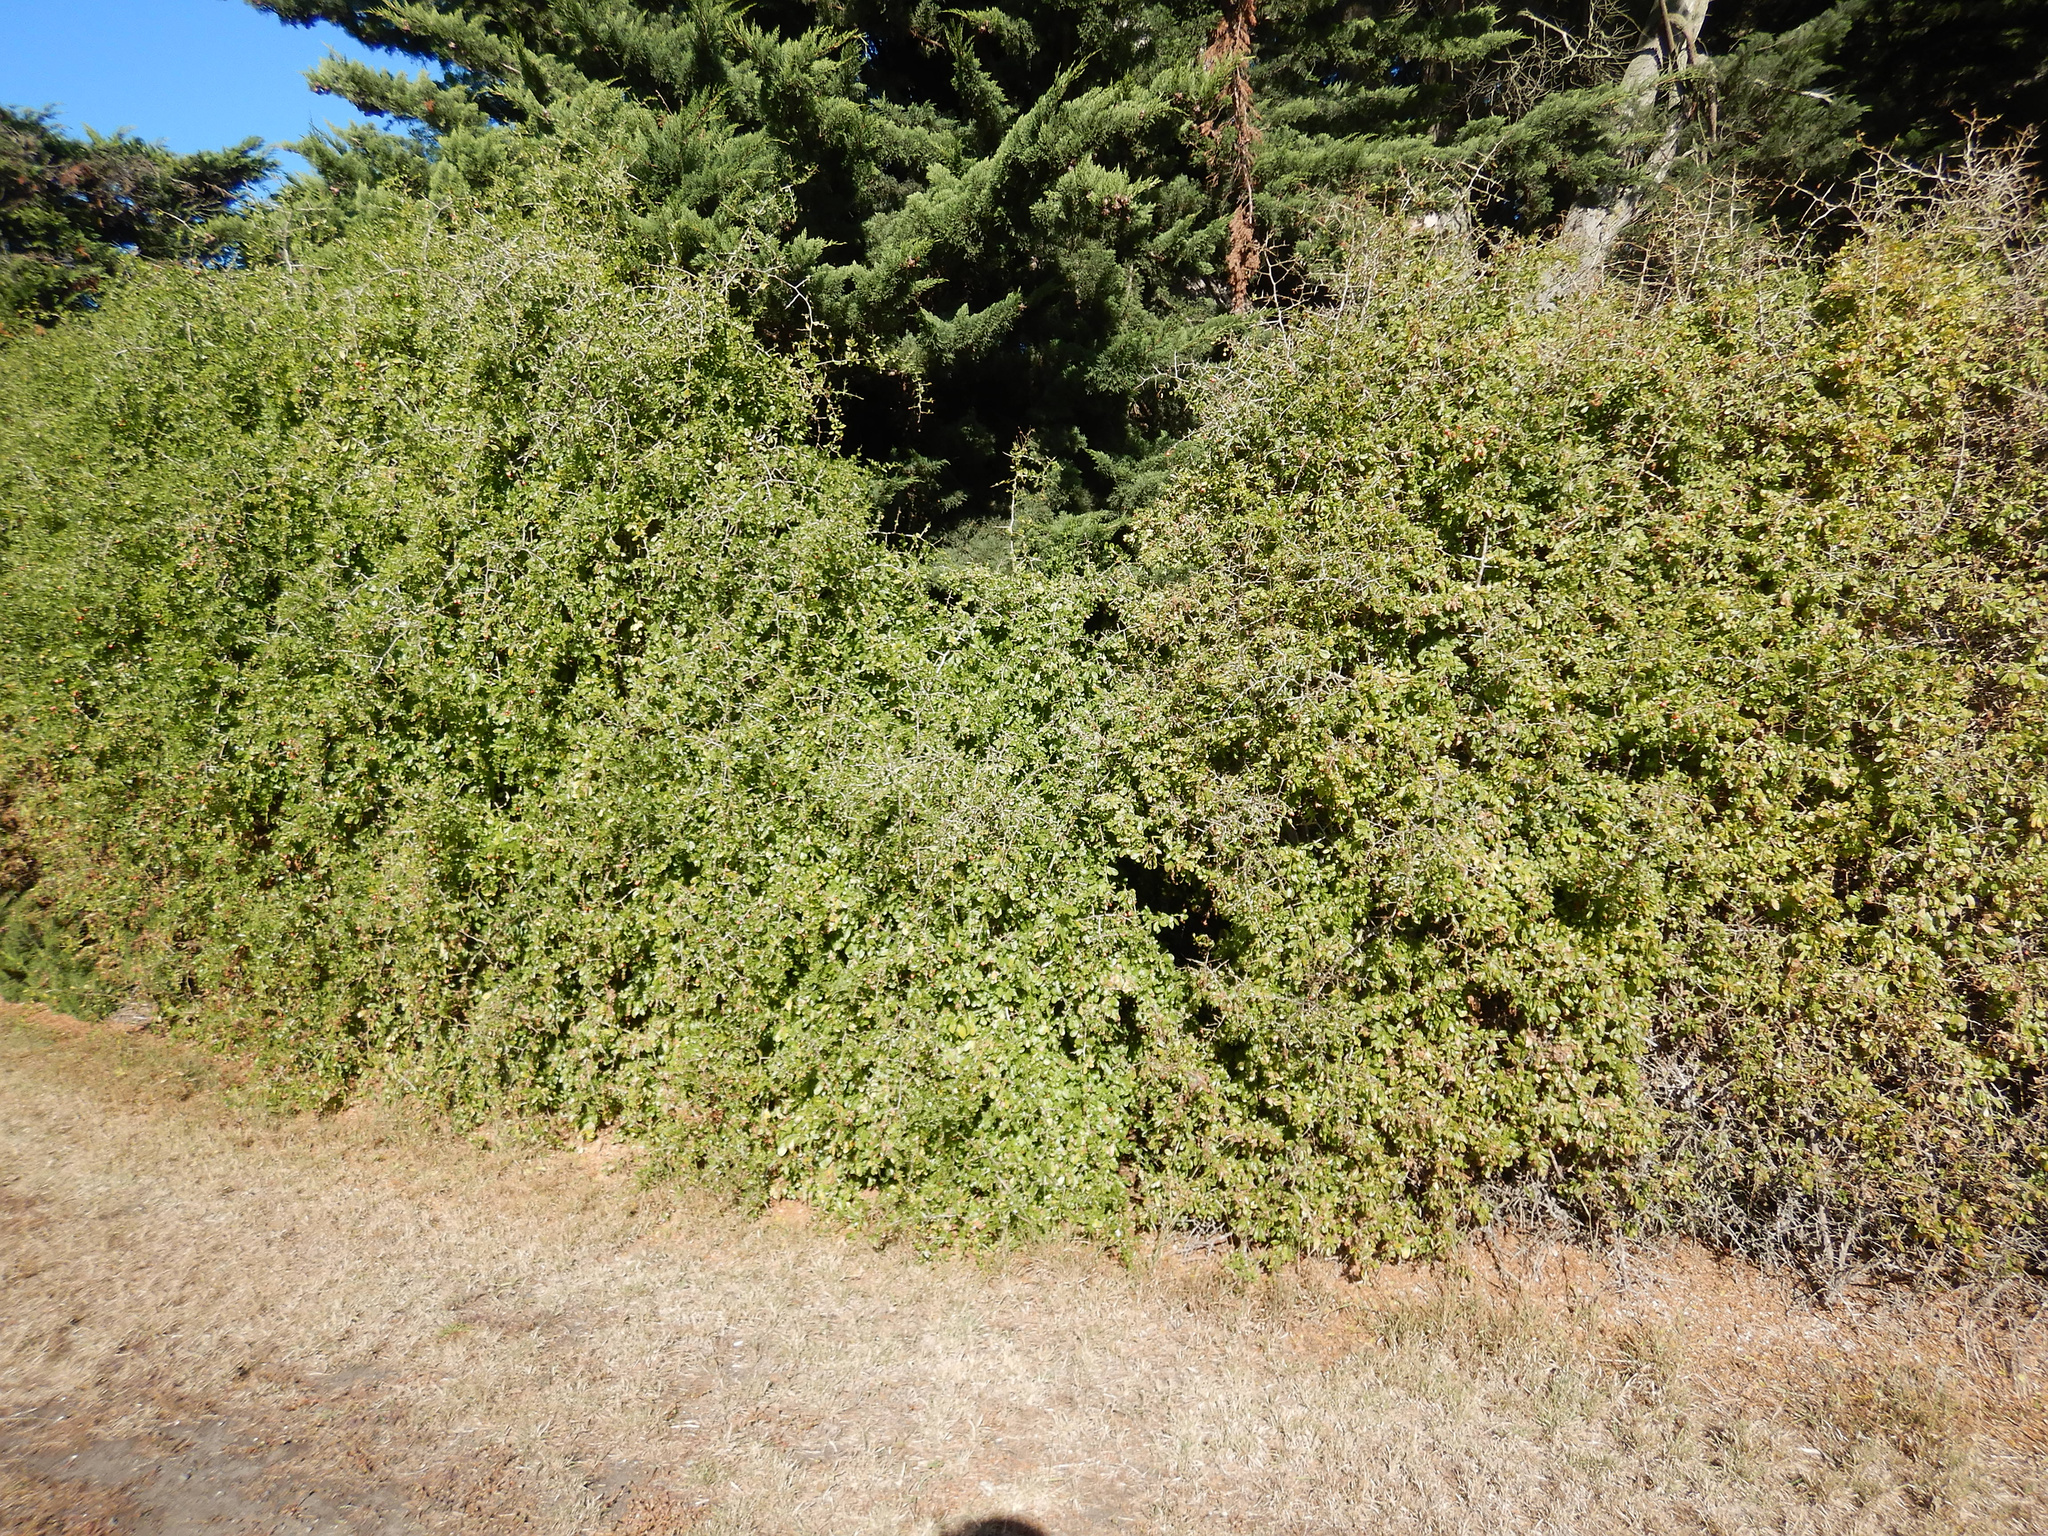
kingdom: Plantae
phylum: Tracheophyta
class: Magnoliopsida
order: Solanales
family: Solanaceae
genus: Lycium
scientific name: Lycium ferocissimum
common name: African boxthorn
